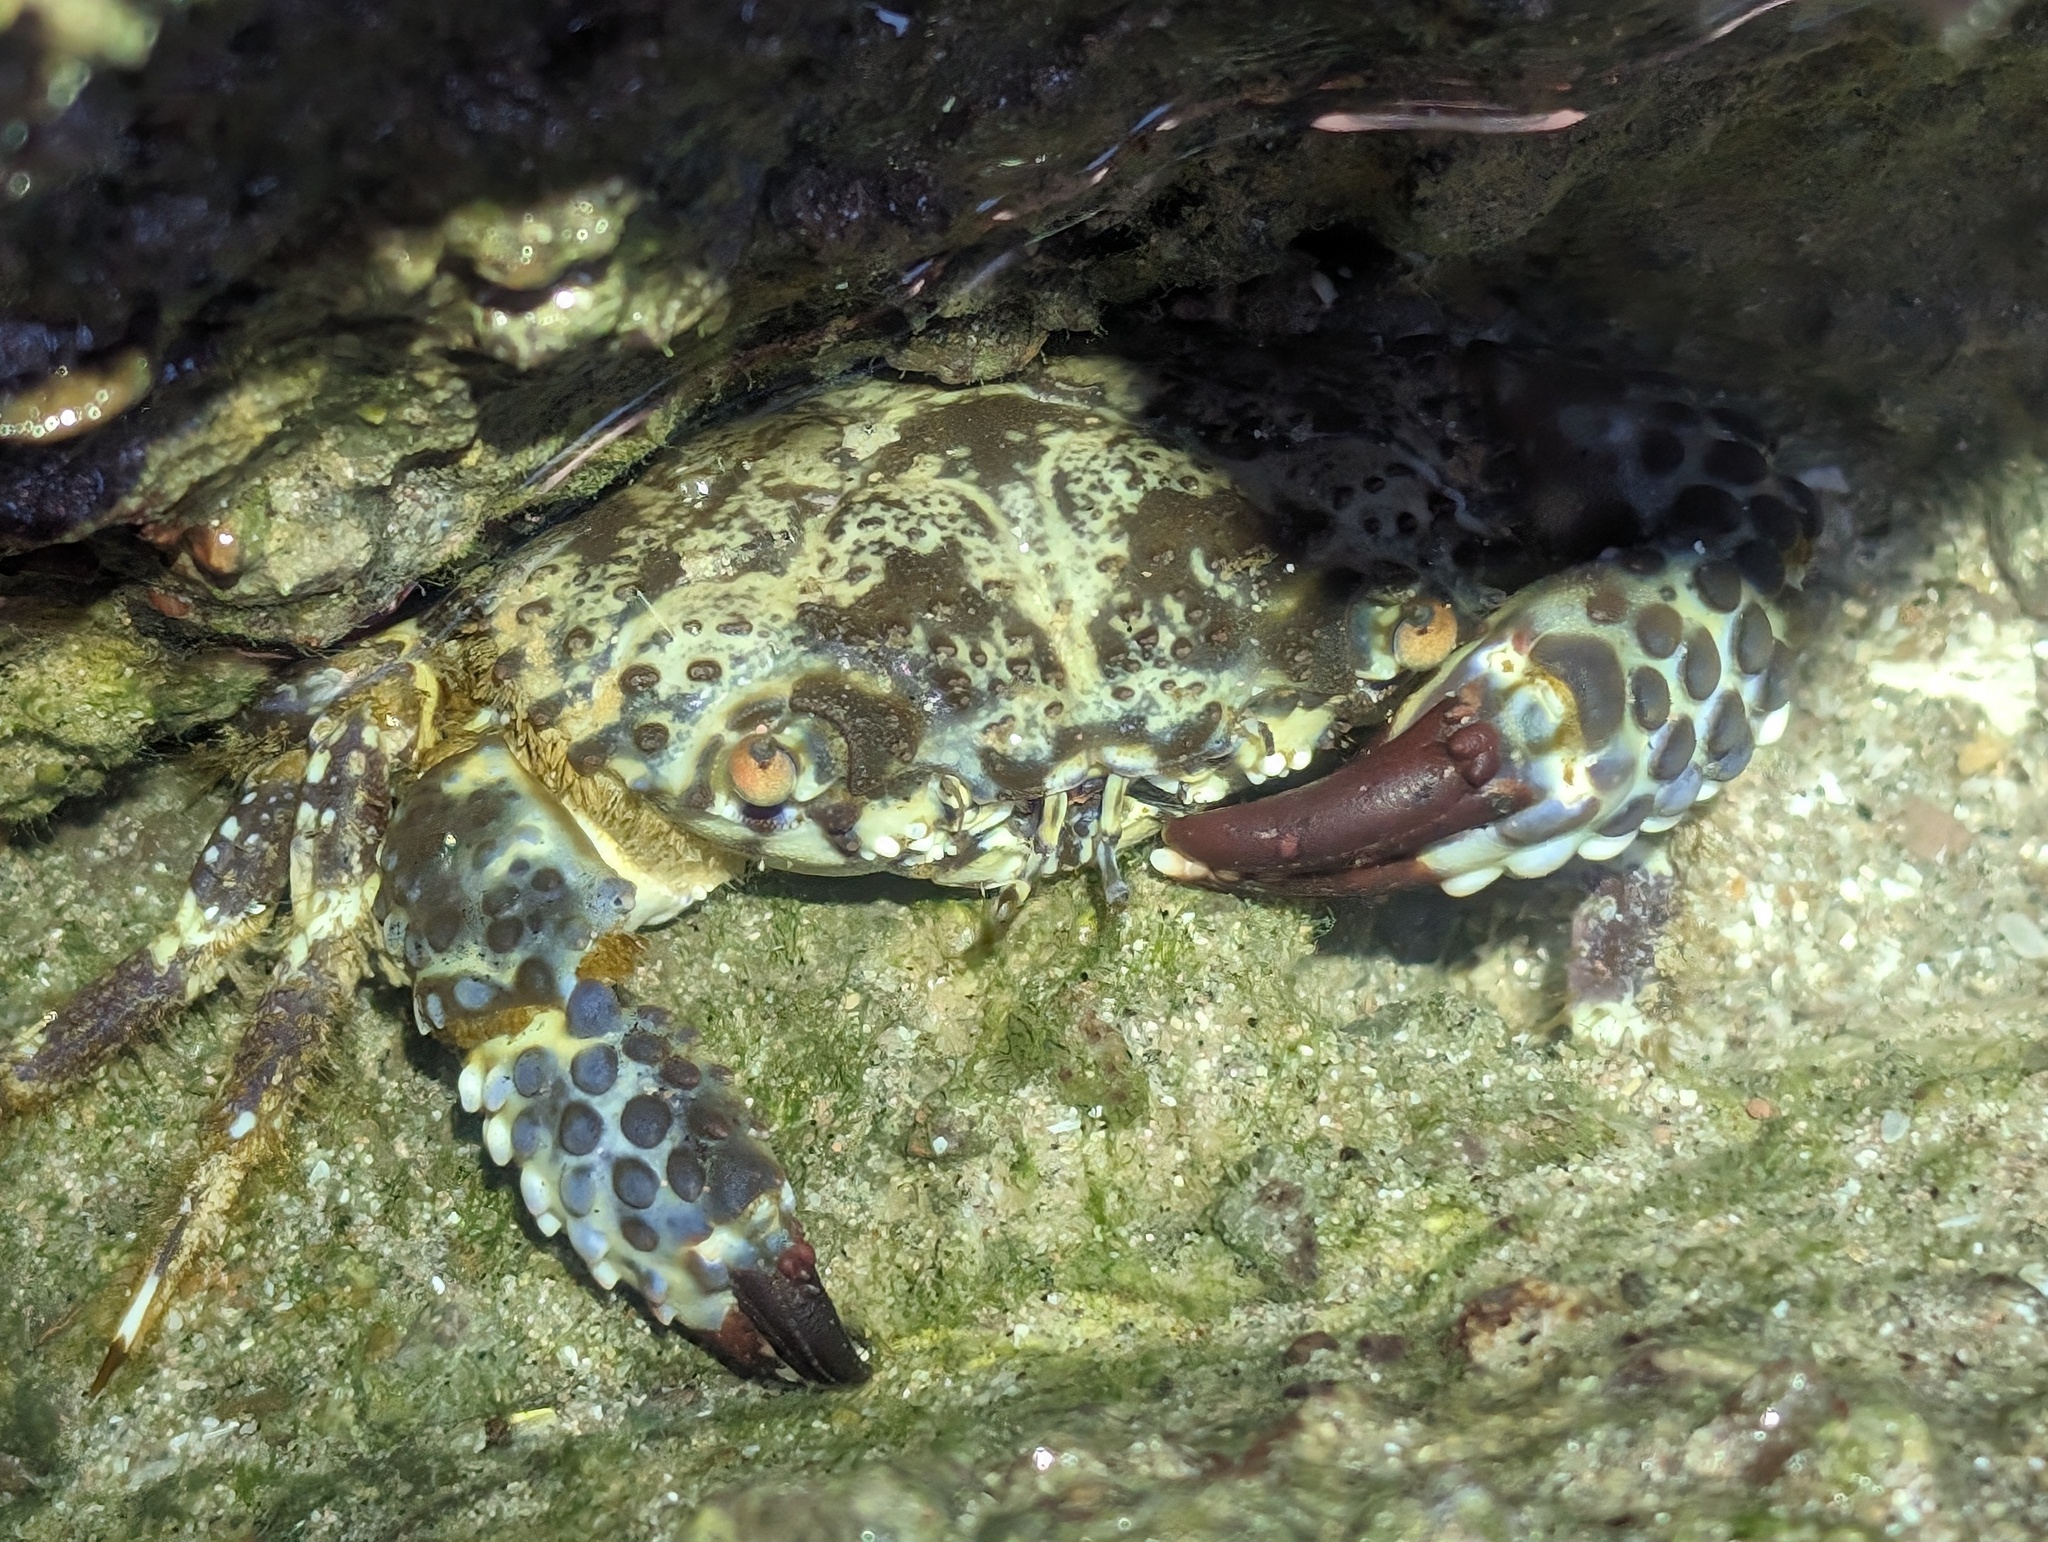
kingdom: Animalia
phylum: Arthropoda
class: Malacostraca
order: Decapoda
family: Eriphiidae
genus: Eriphia
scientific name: Eriphia squamata
